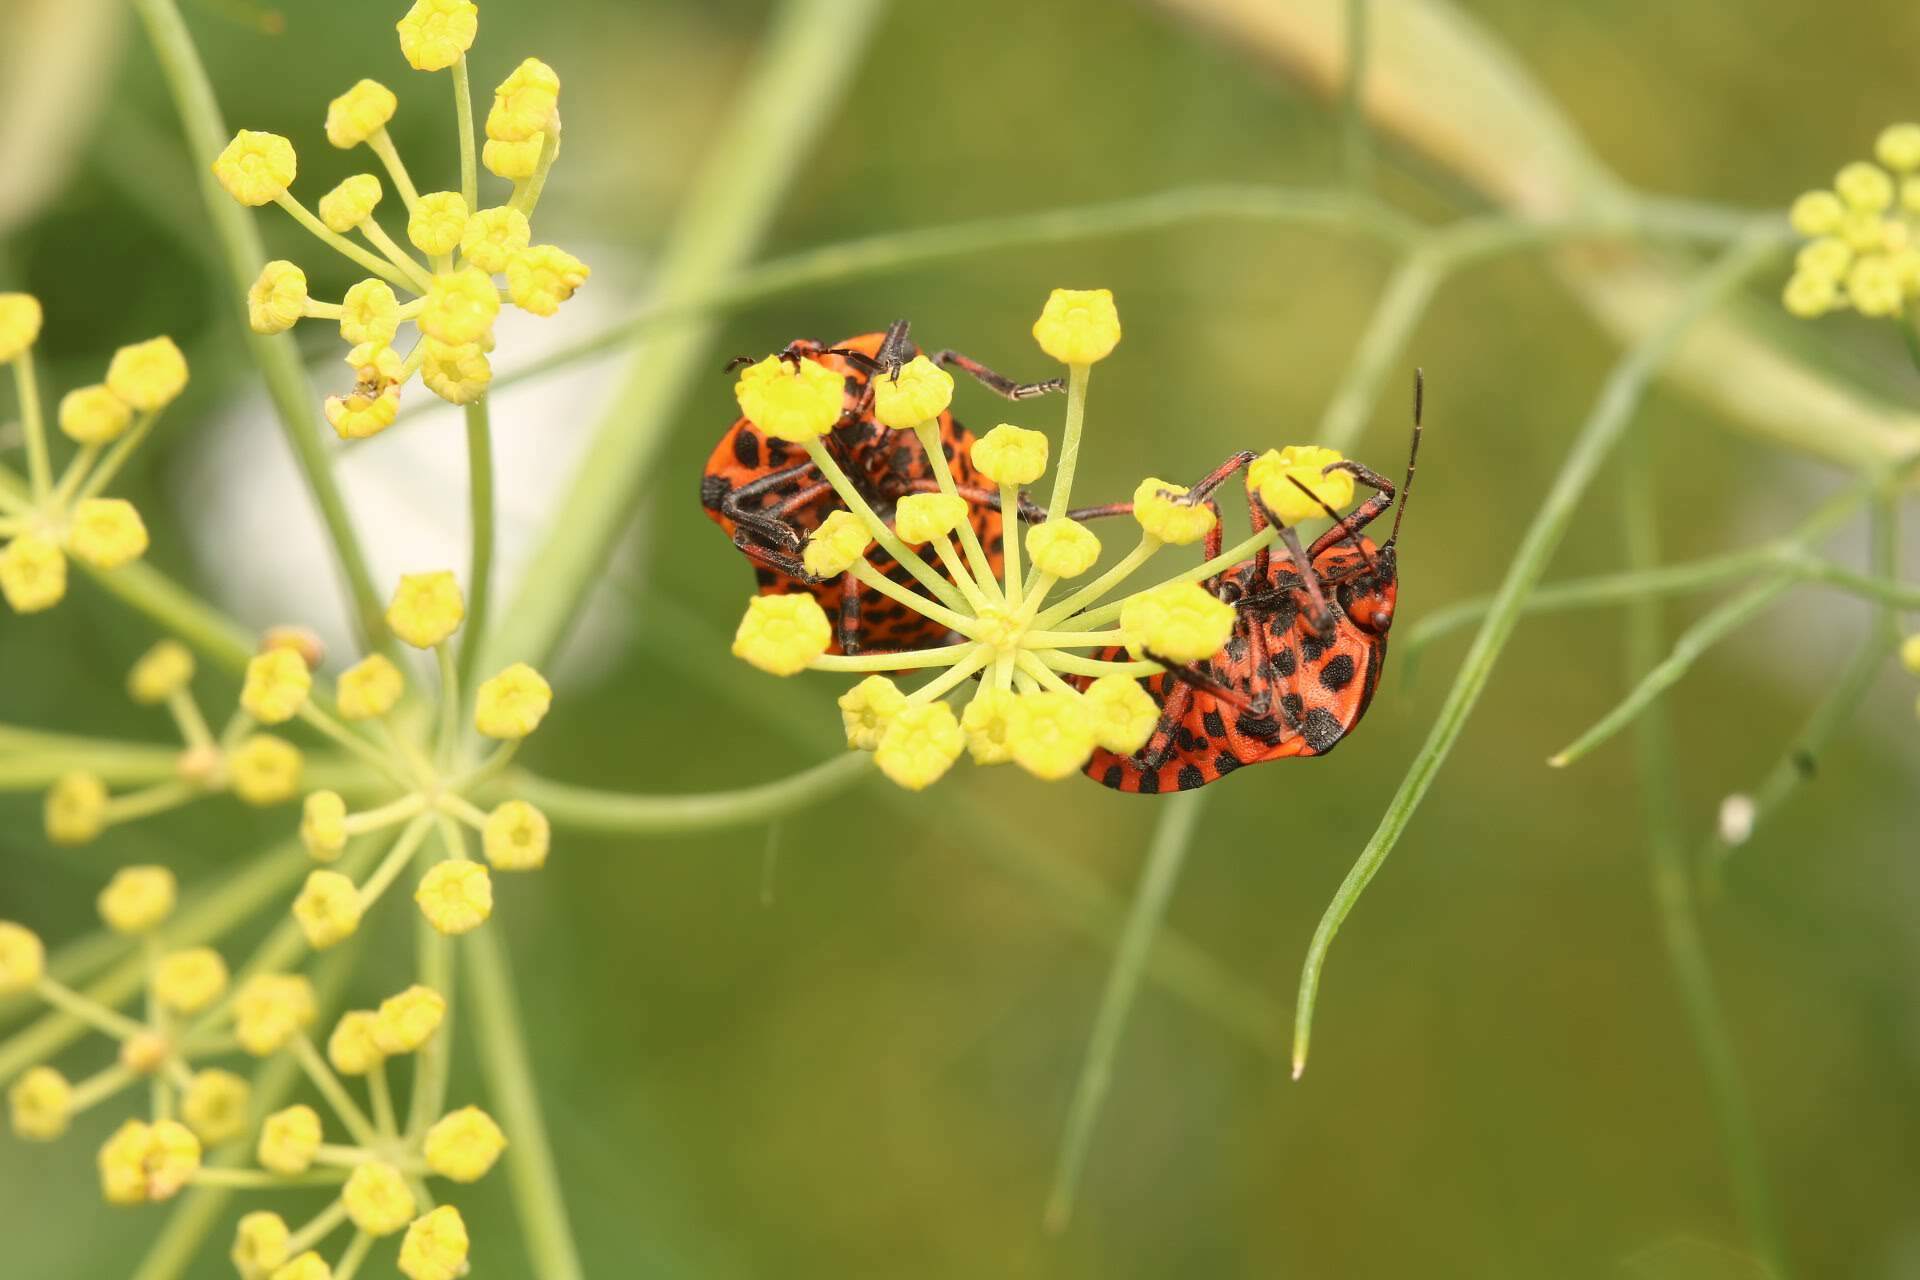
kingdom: Animalia
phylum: Arthropoda
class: Insecta
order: Hemiptera
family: Pentatomidae
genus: Graphosoma
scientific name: Graphosoma italicum
